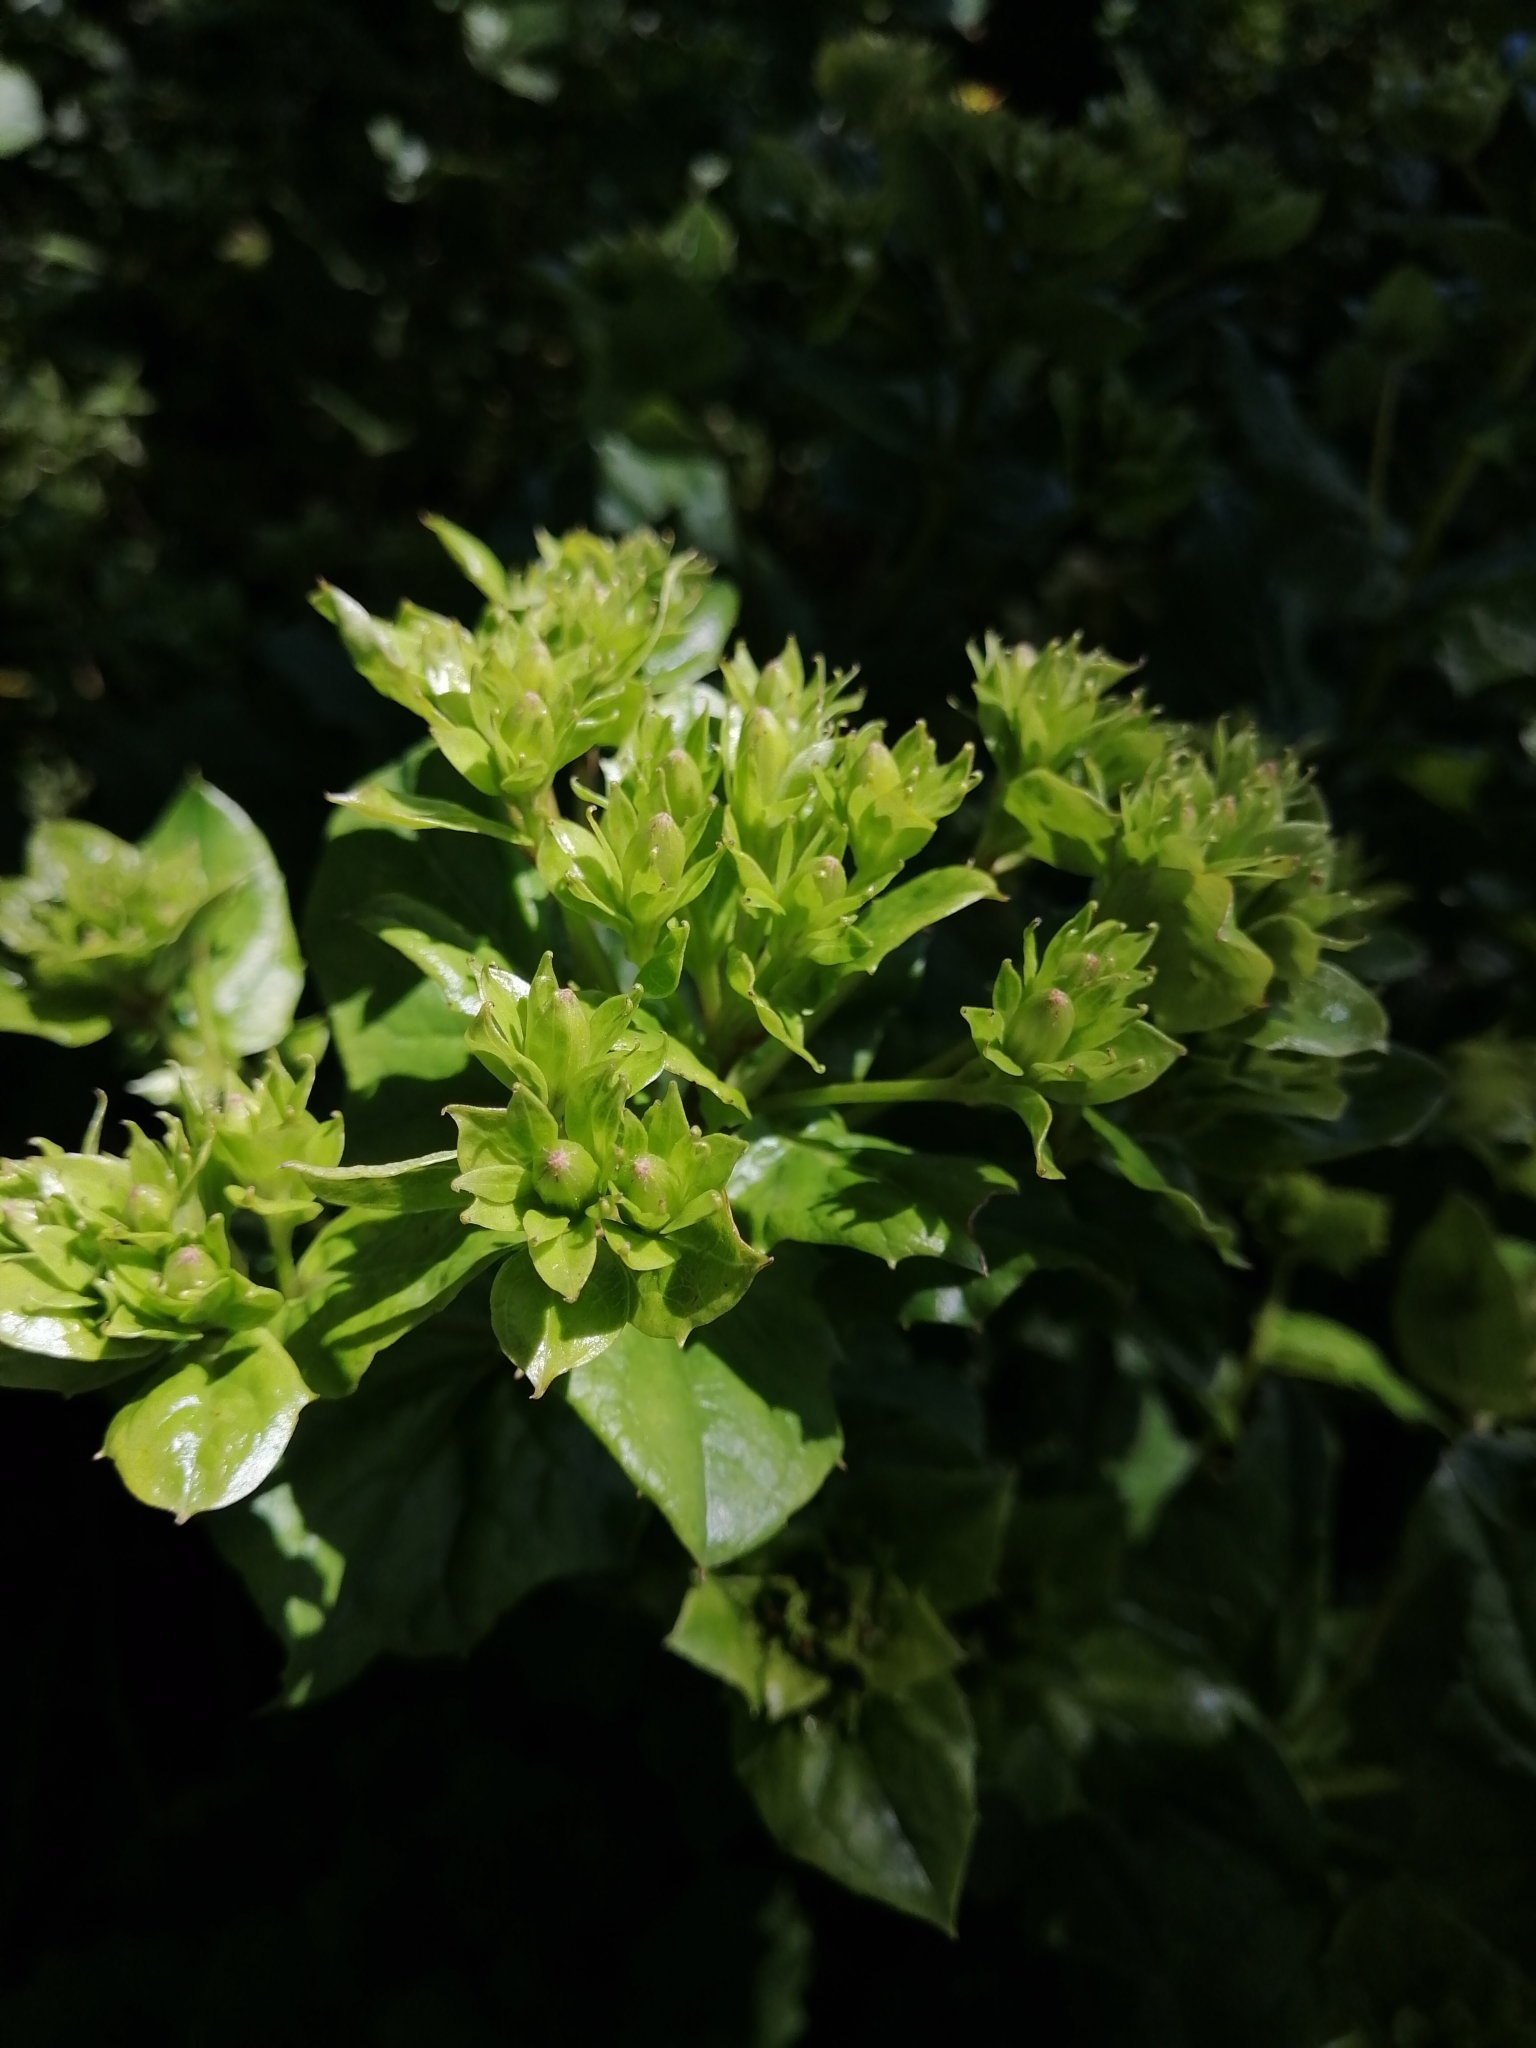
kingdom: Plantae
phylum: Tracheophyta
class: Magnoliopsida
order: Asterales
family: Asteraceae
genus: Roldana
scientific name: Roldana reticulata
